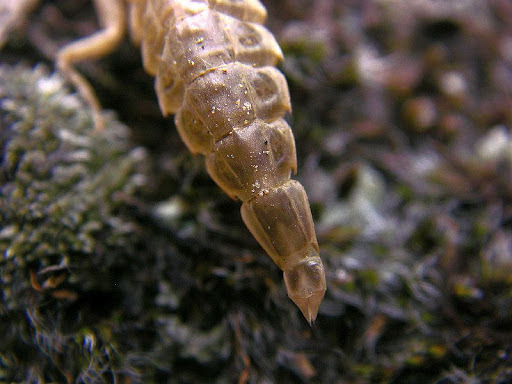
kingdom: Animalia
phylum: Arthropoda
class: Insecta
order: Odonata
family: Gomphidae
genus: Stylurus
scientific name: Stylurus flavipes
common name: River clubtail
